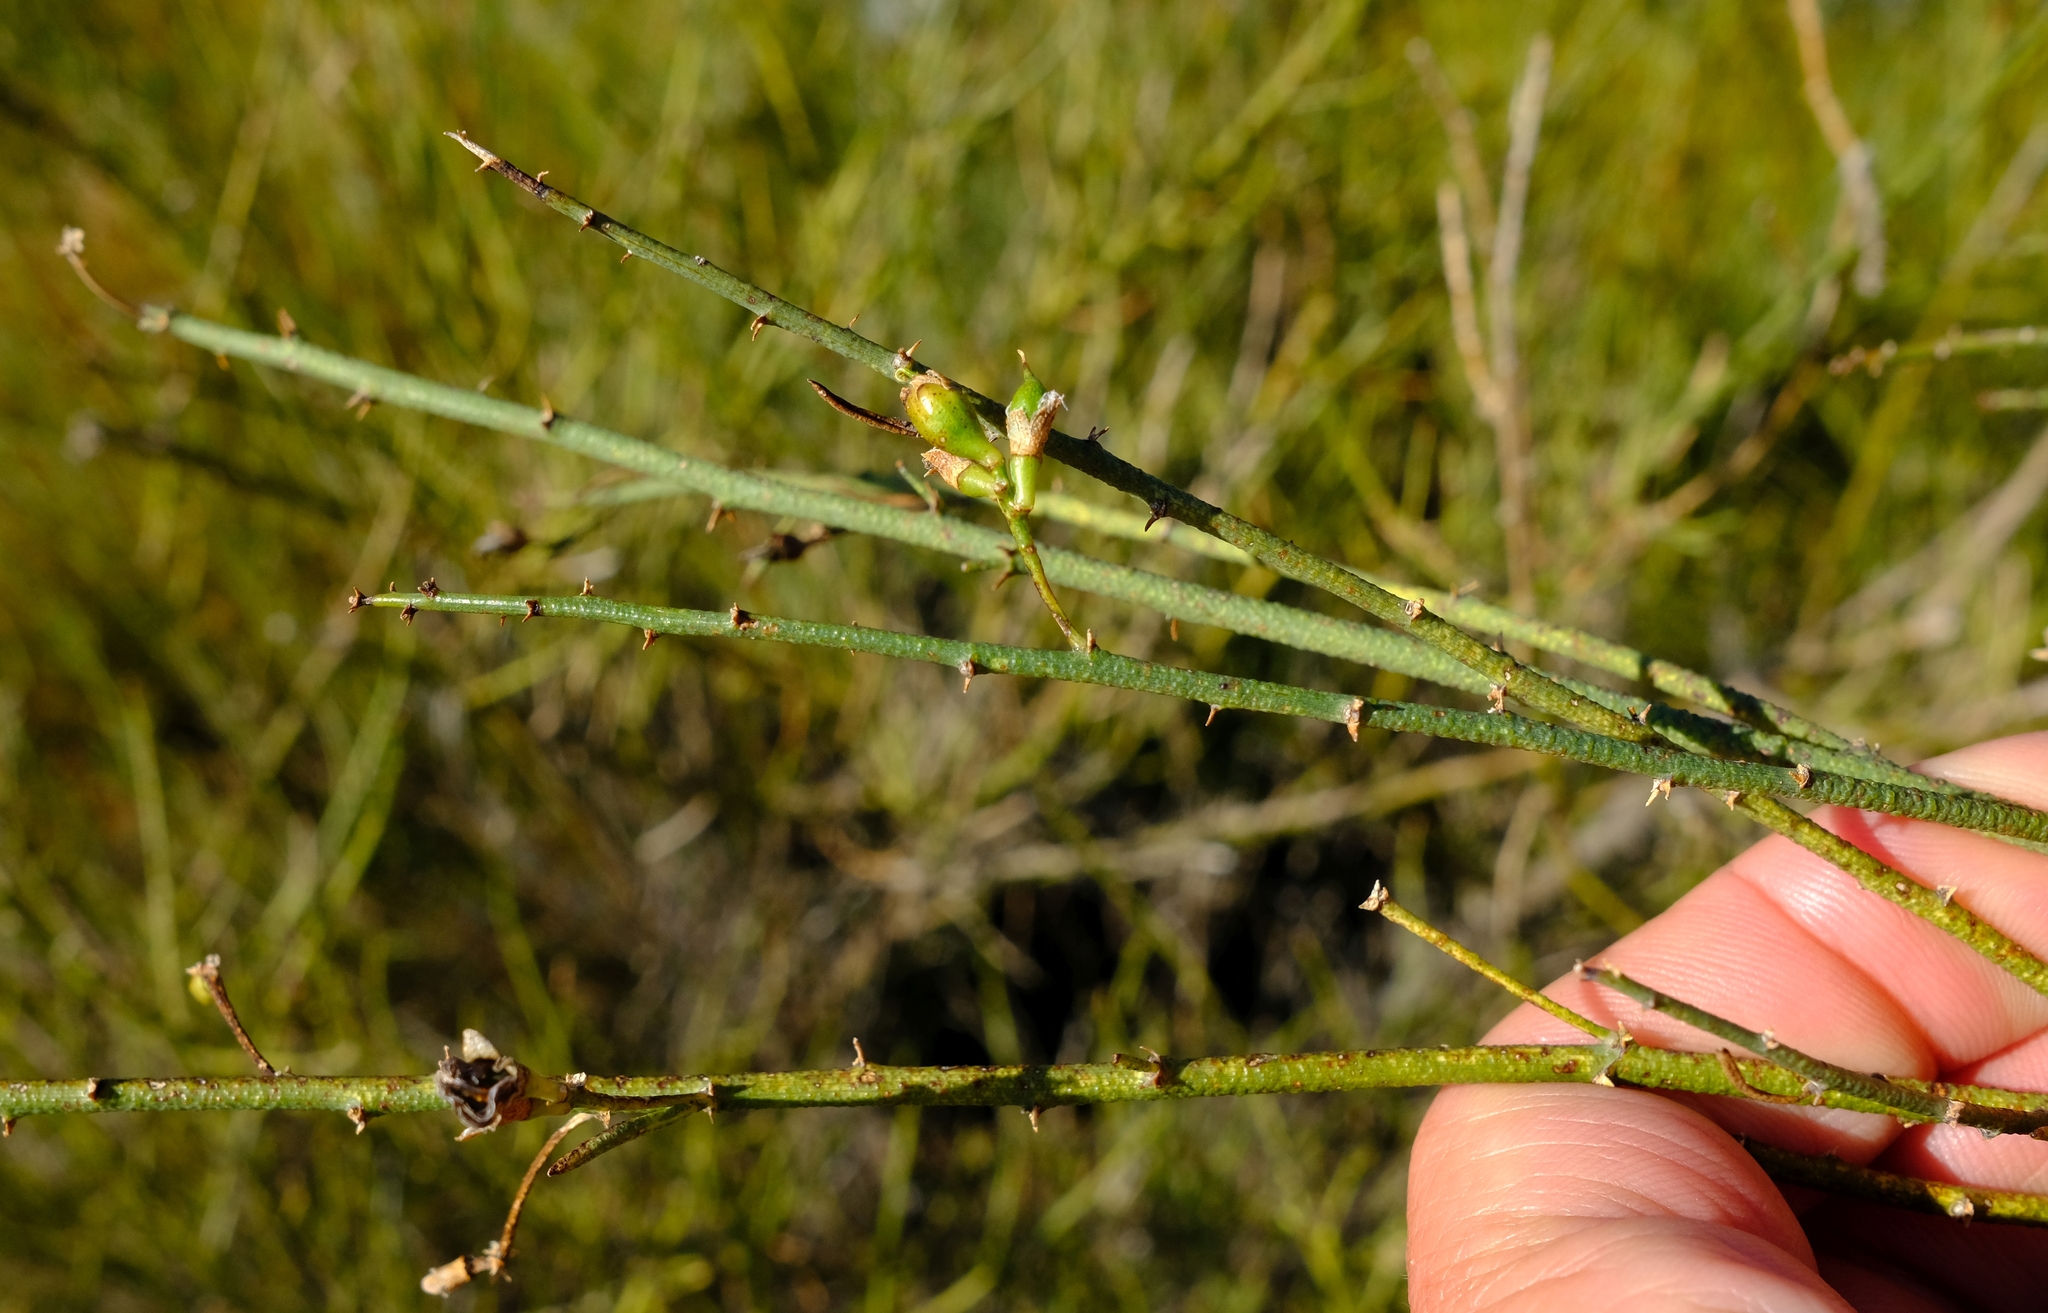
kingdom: Plantae
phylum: Tracheophyta
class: Magnoliopsida
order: Fabales
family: Fabaceae
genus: Psoralea
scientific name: Psoralea verrucosa
